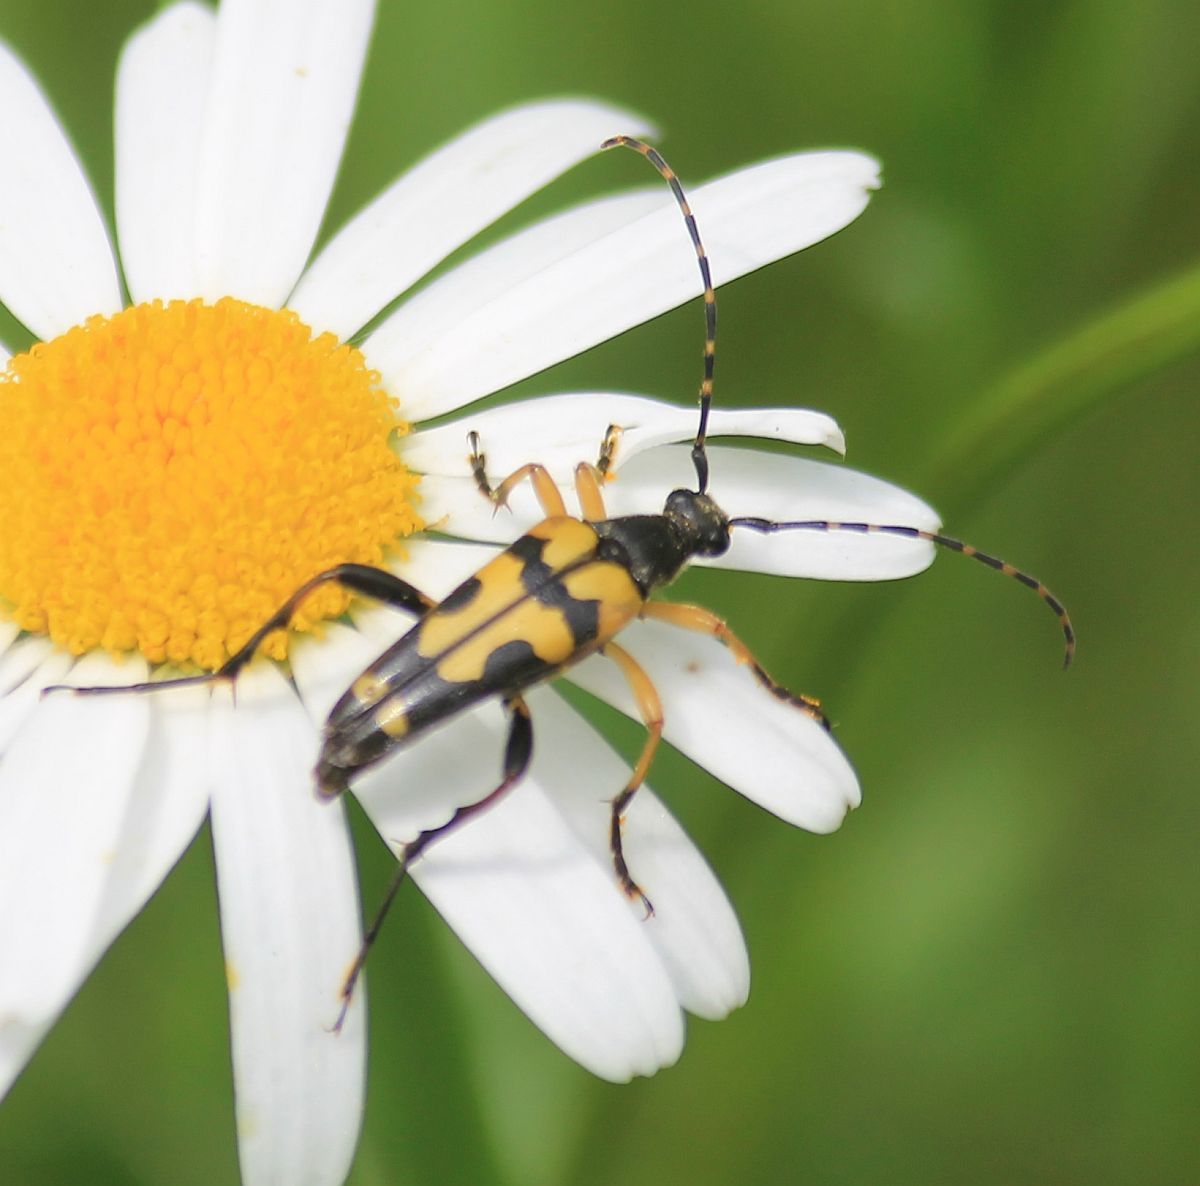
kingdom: Animalia
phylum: Arthropoda
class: Insecta
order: Coleoptera
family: Cerambycidae
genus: Rutpela
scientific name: Rutpela maculata
